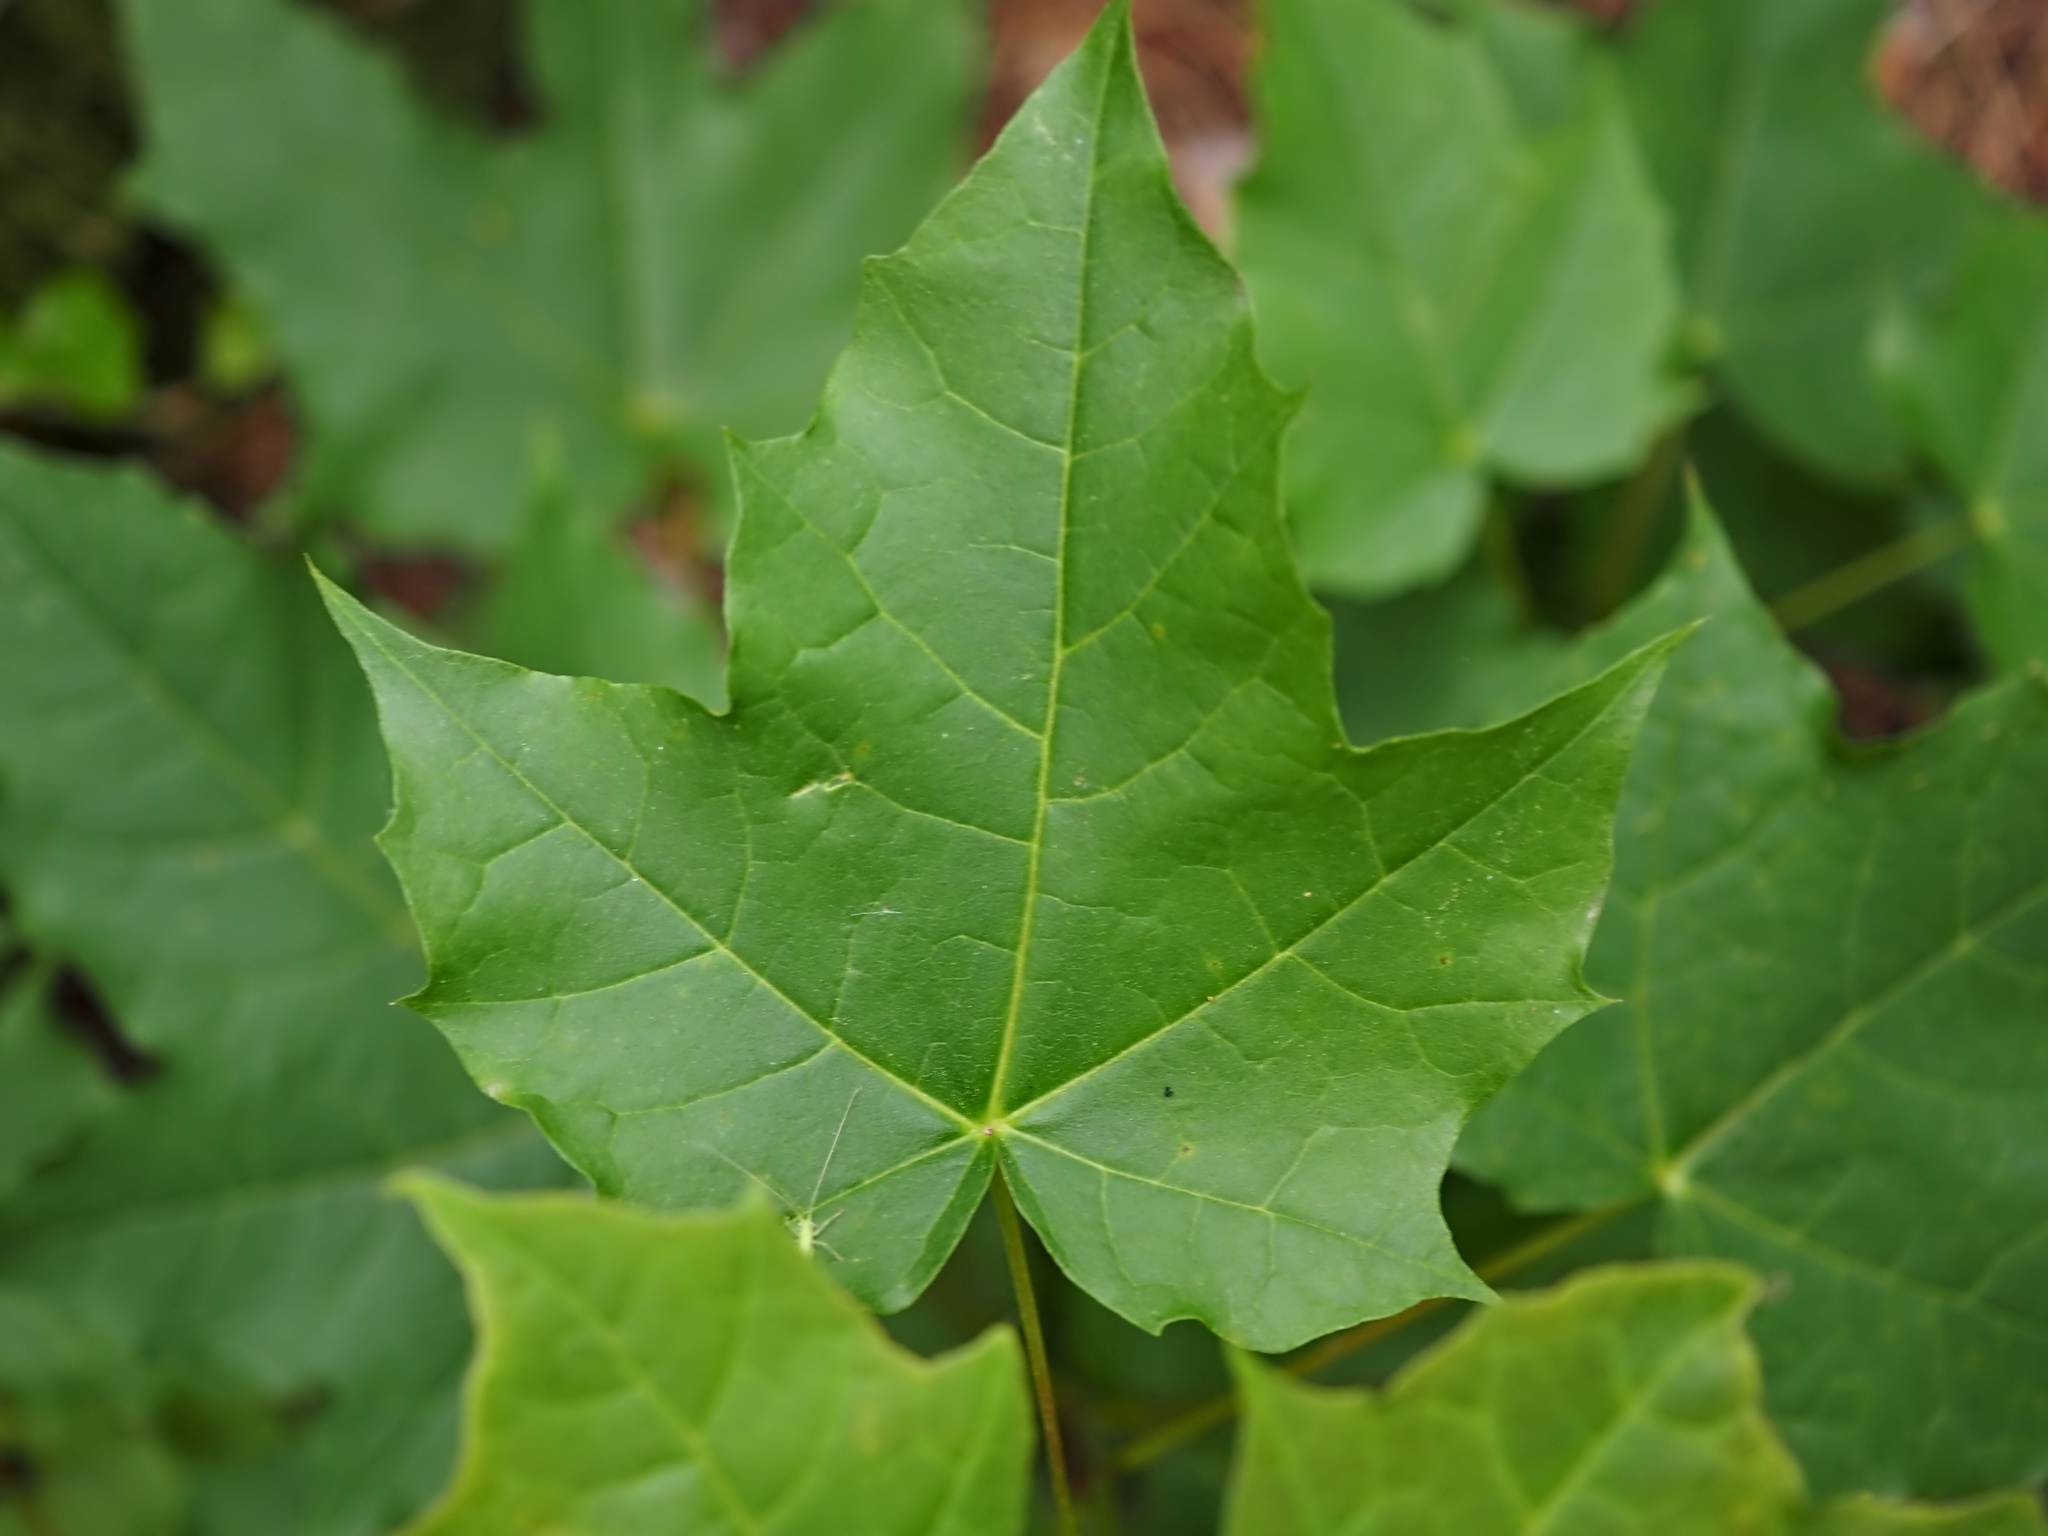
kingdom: Plantae
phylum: Tracheophyta
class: Magnoliopsida
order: Sapindales
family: Sapindaceae
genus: Acer
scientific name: Acer platanoides
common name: Norway maple
